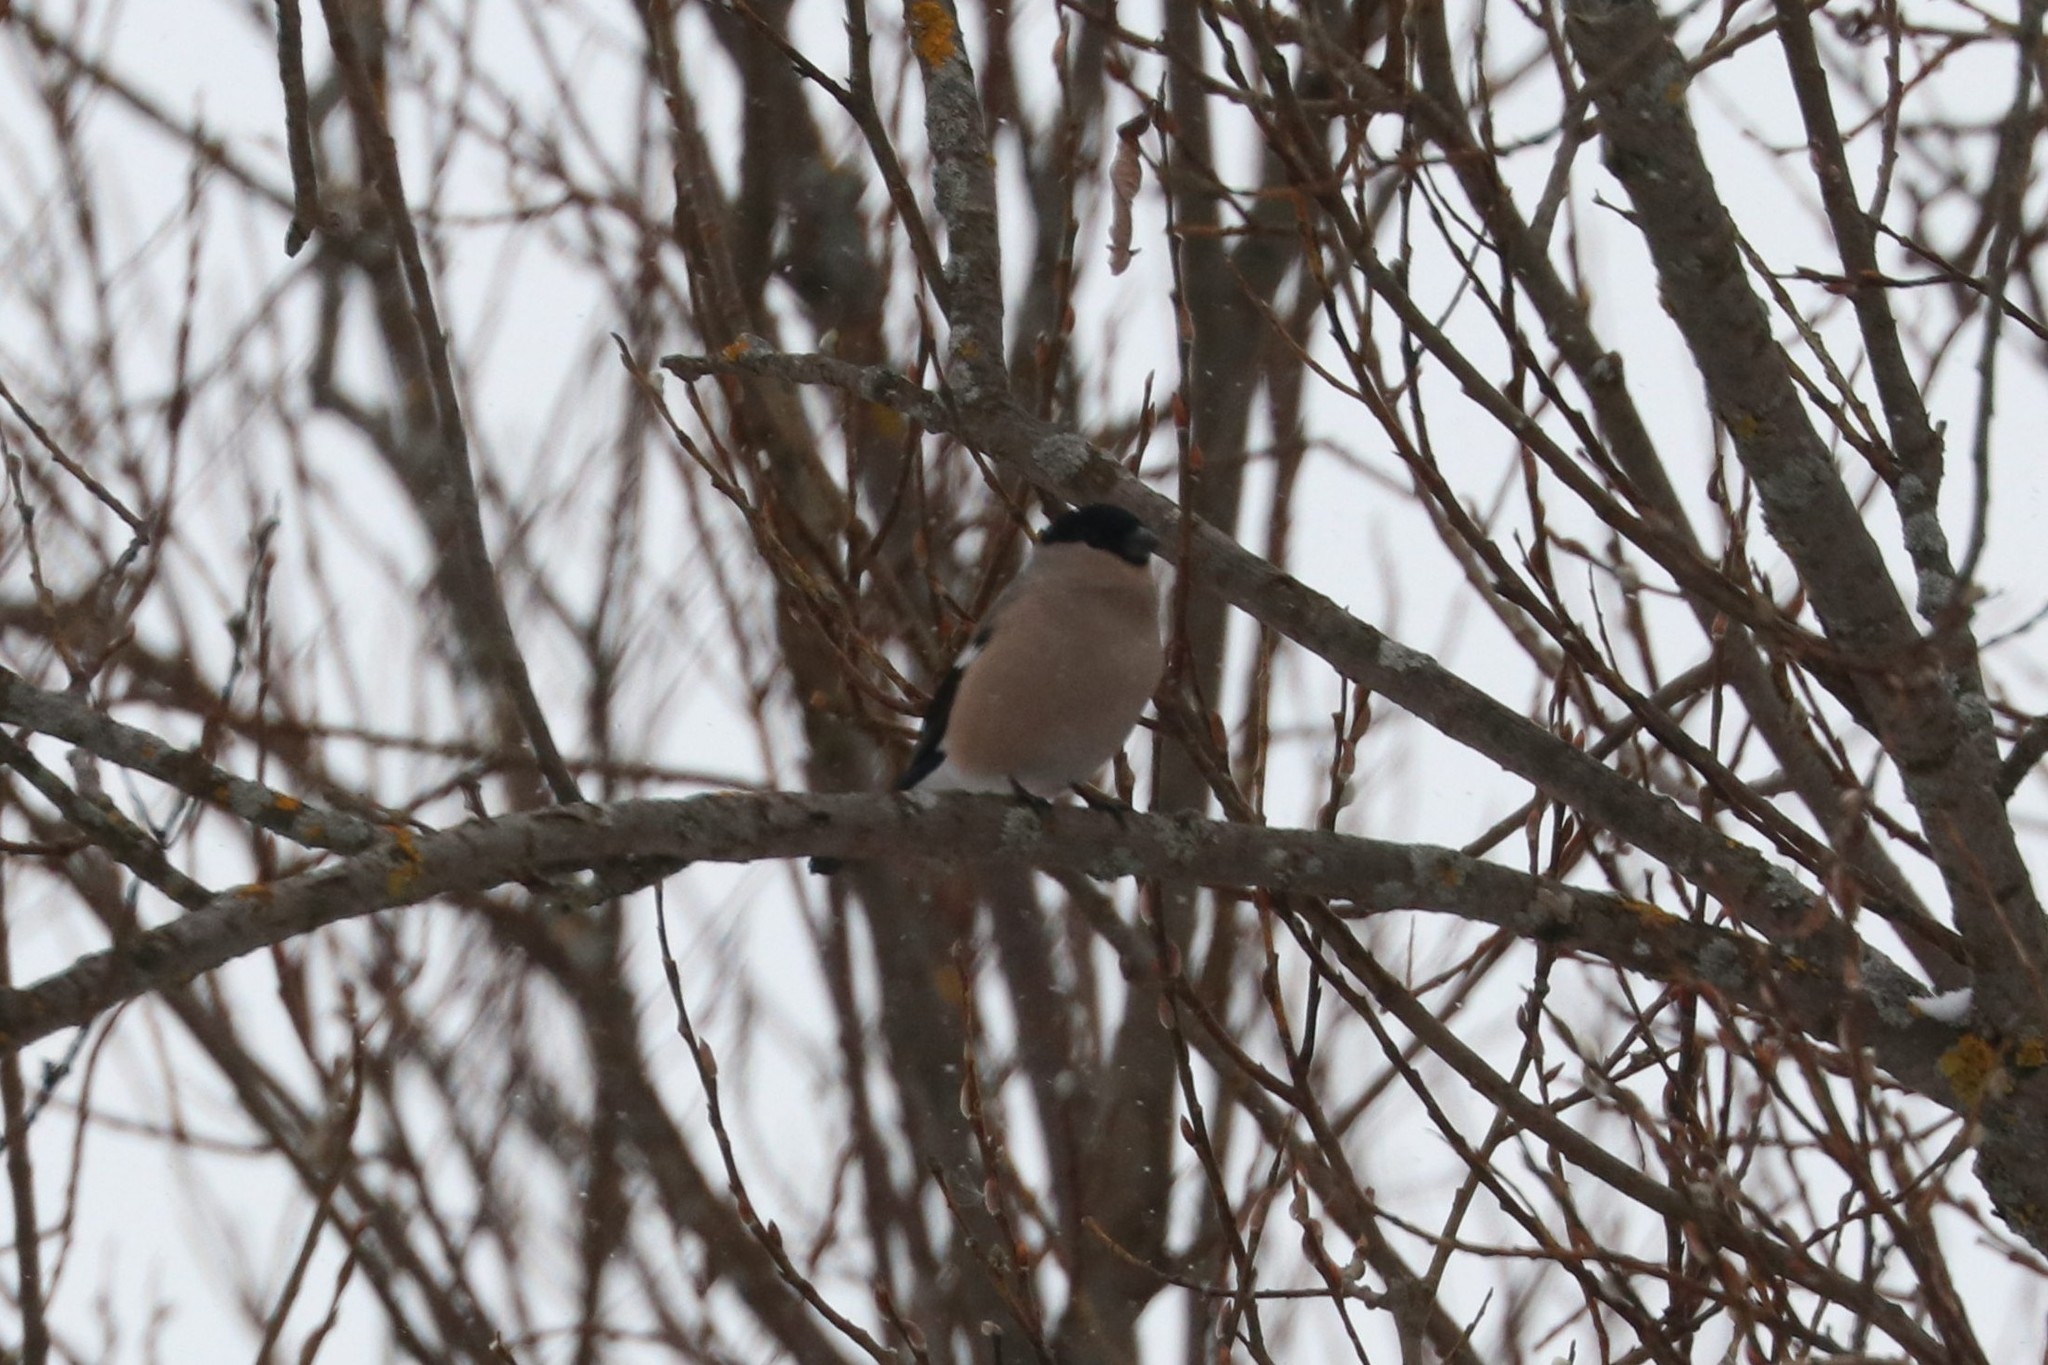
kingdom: Animalia
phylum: Chordata
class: Aves
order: Passeriformes
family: Fringillidae
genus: Pyrrhula
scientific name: Pyrrhula pyrrhula
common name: Eurasian bullfinch
